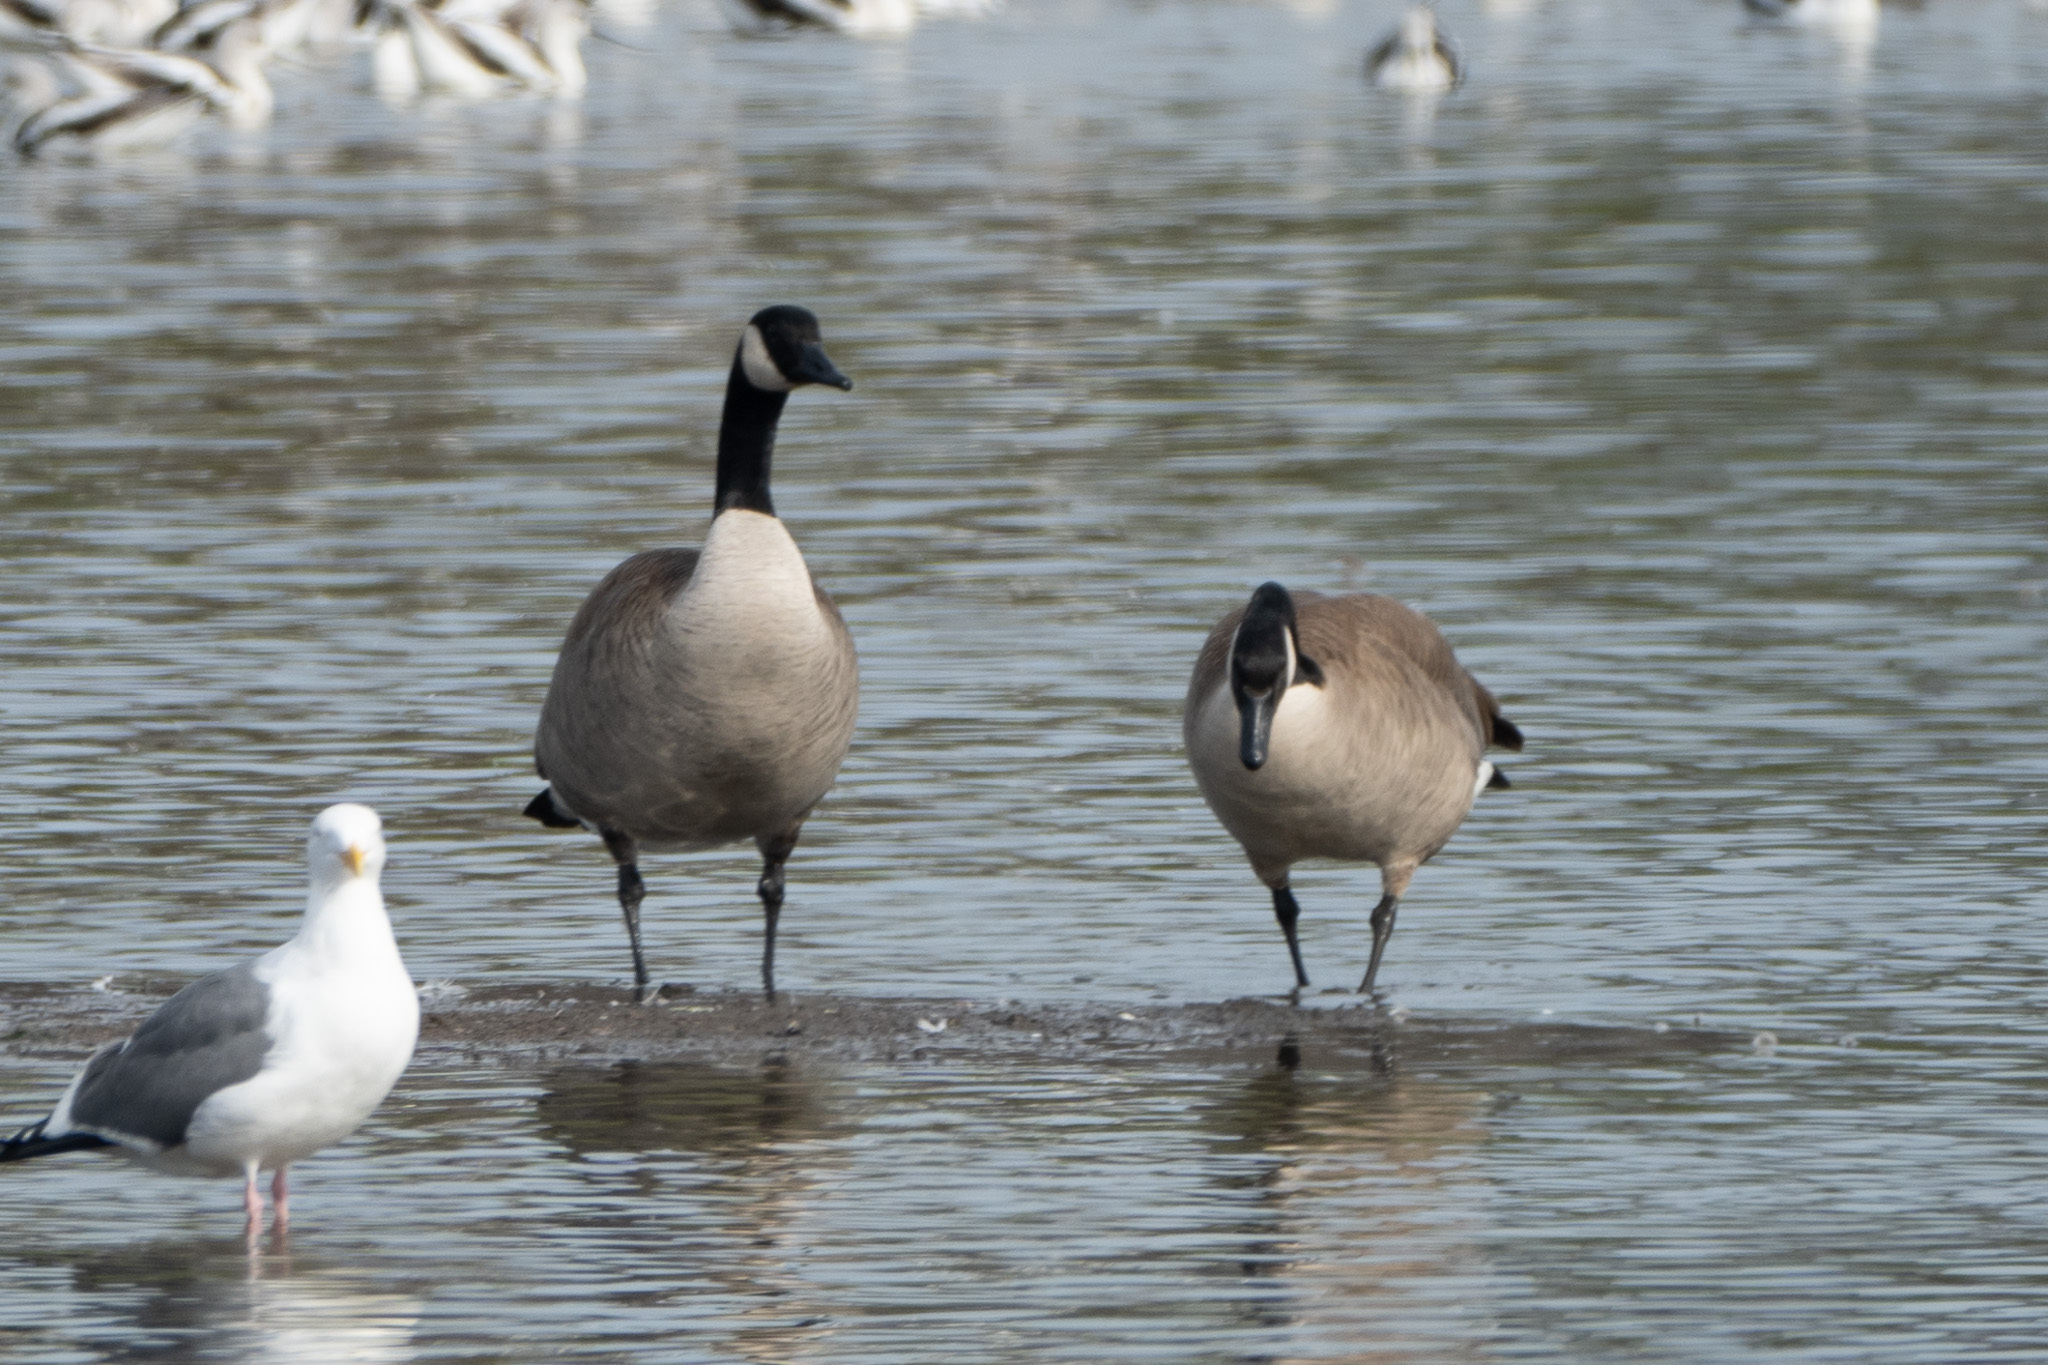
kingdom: Animalia
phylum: Chordata
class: Aves
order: Anseriformes
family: Anatidae
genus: Branta
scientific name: Branta canadensis
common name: Canada goose
